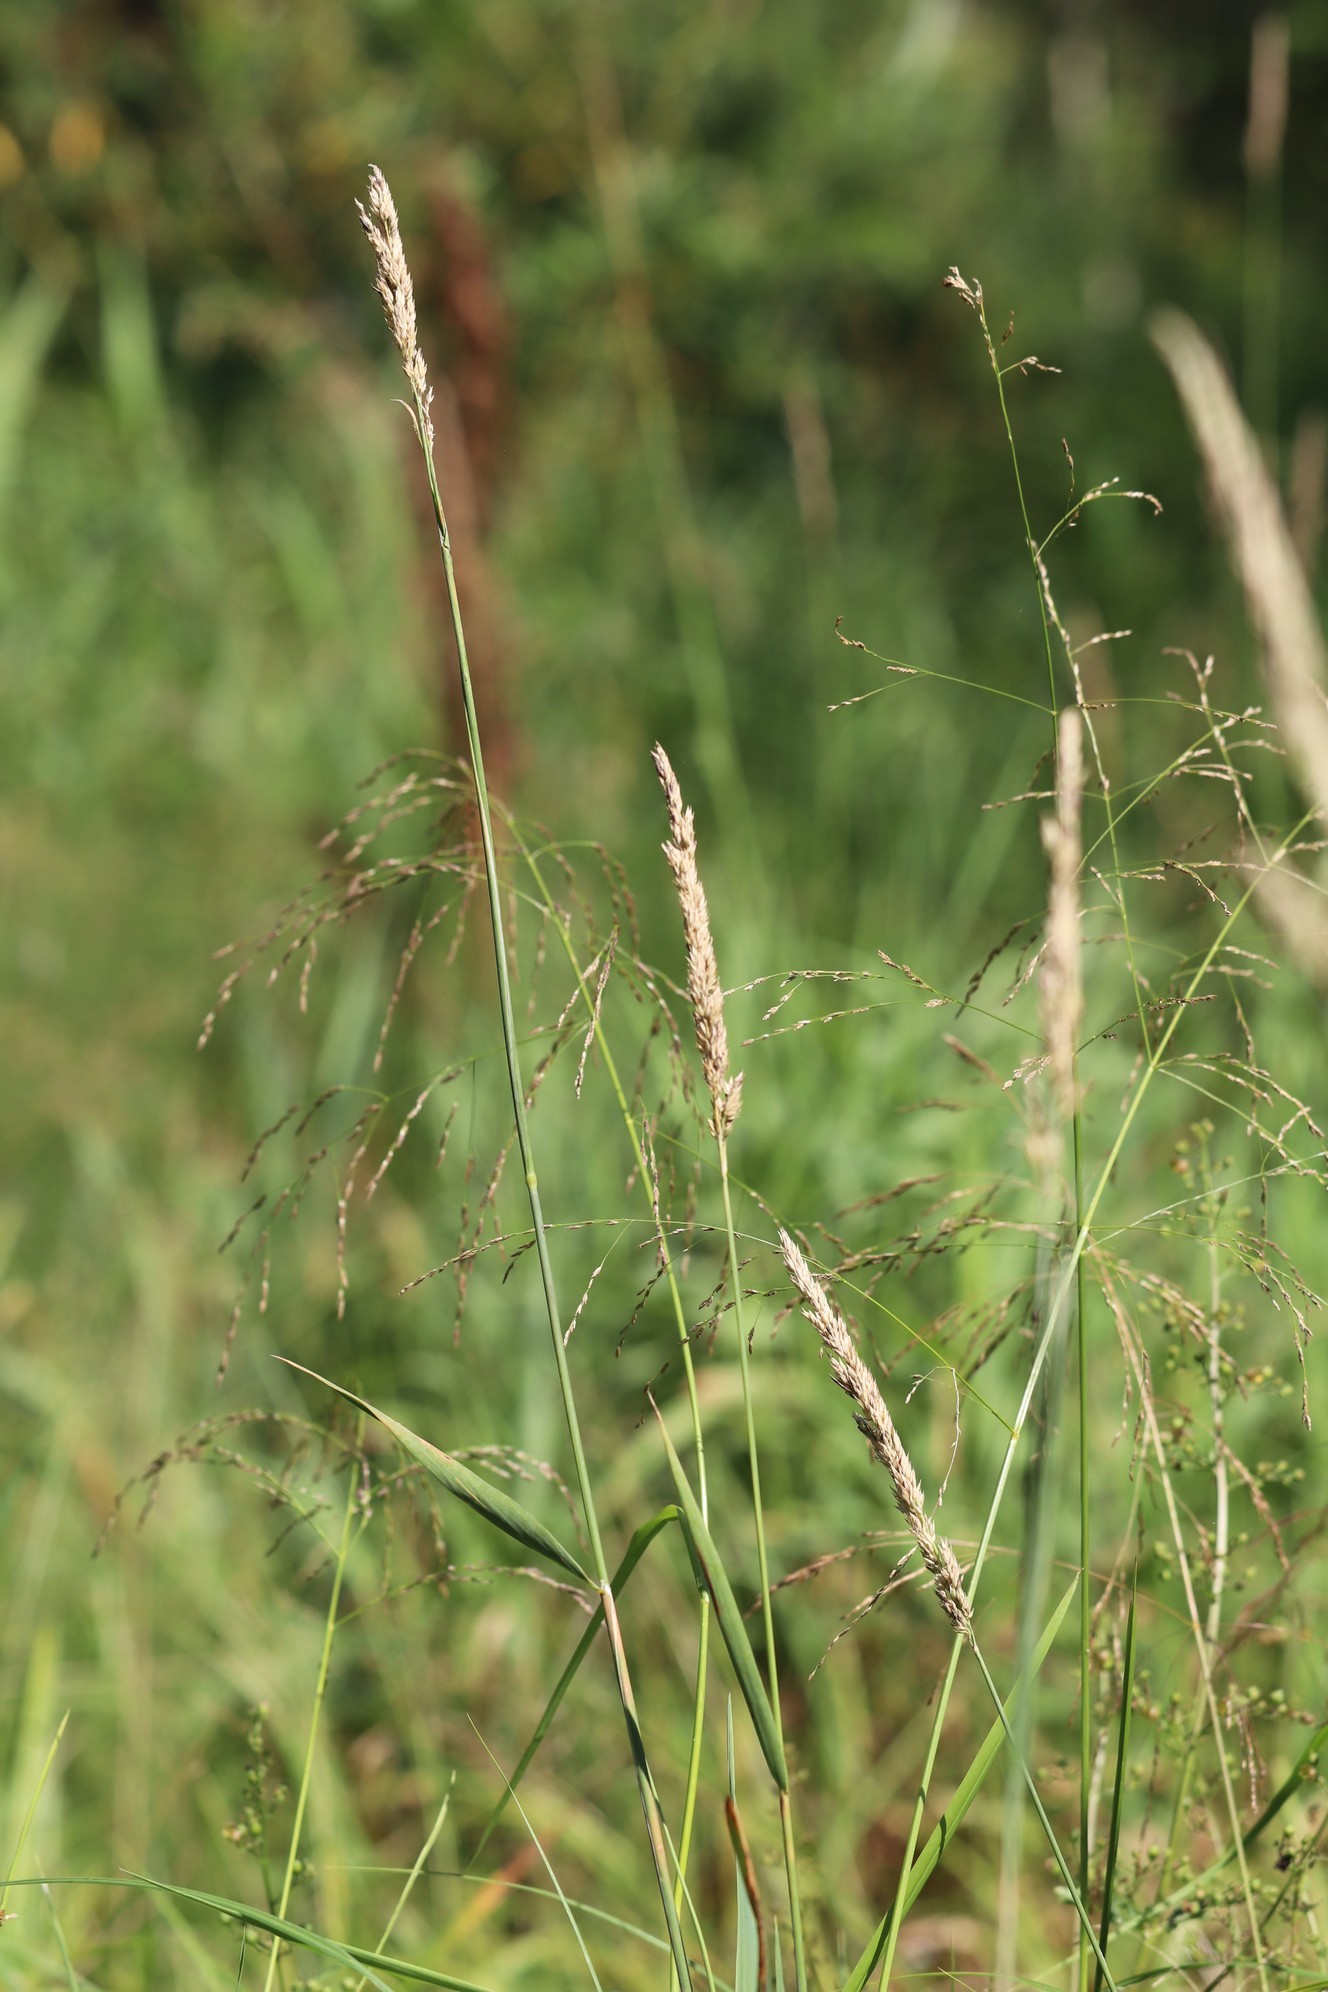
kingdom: Plantae
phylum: Tracheophyta
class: Liliopsida
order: Poales
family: Poaceae
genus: Phalaris
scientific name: Phalaris arundinacea
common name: Reed canary-grass
